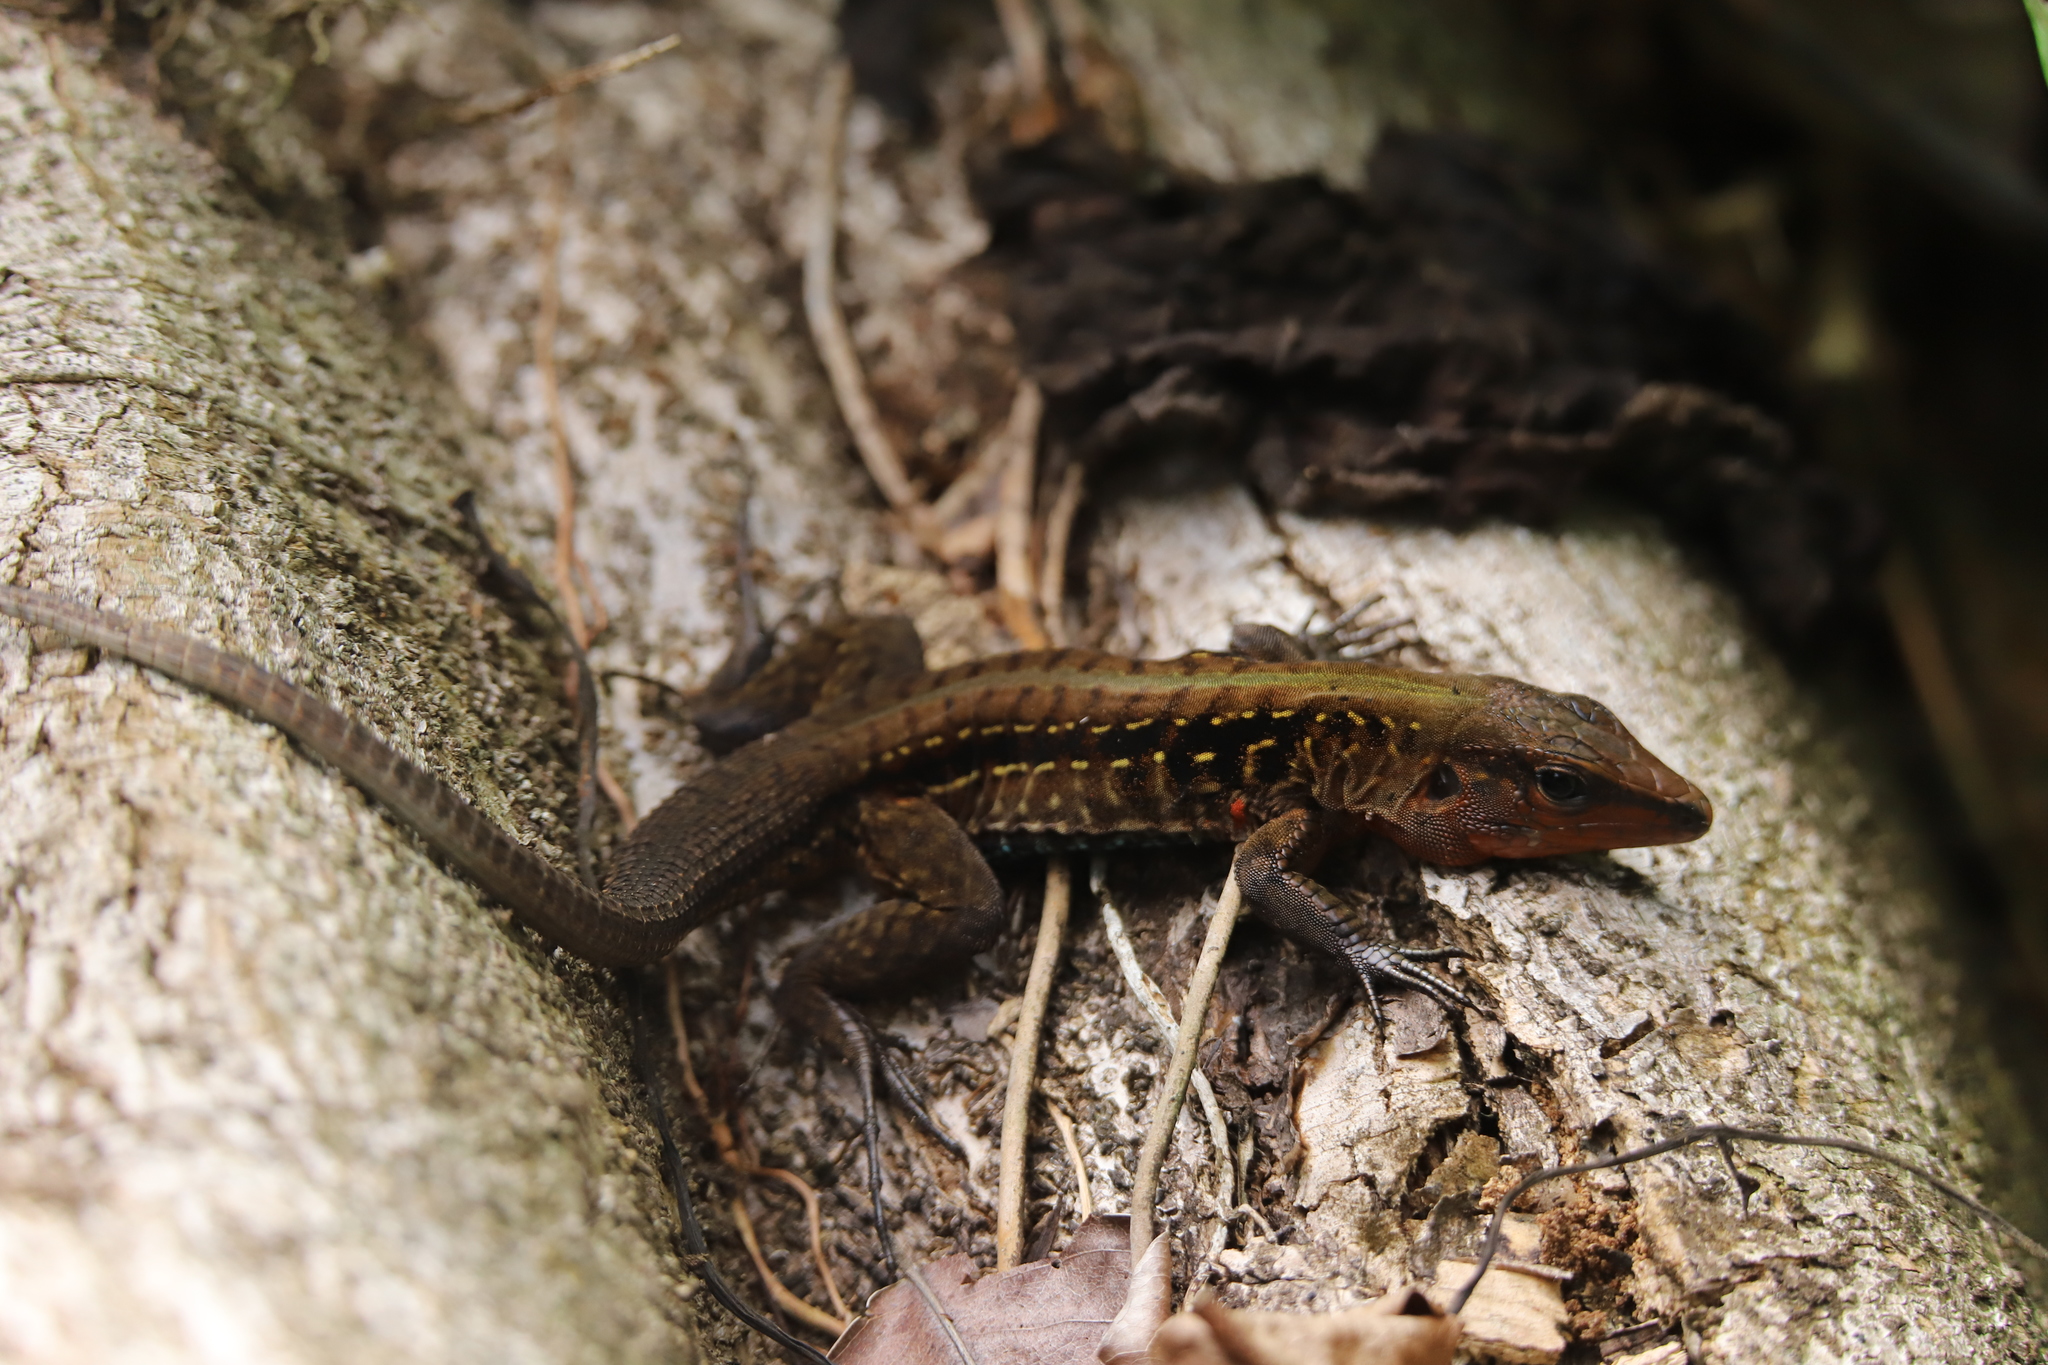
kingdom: Animalia
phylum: Chordata
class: Squamata
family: Teiidae
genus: Holcosus
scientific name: Holcosus festivus
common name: Middle american ameiva
